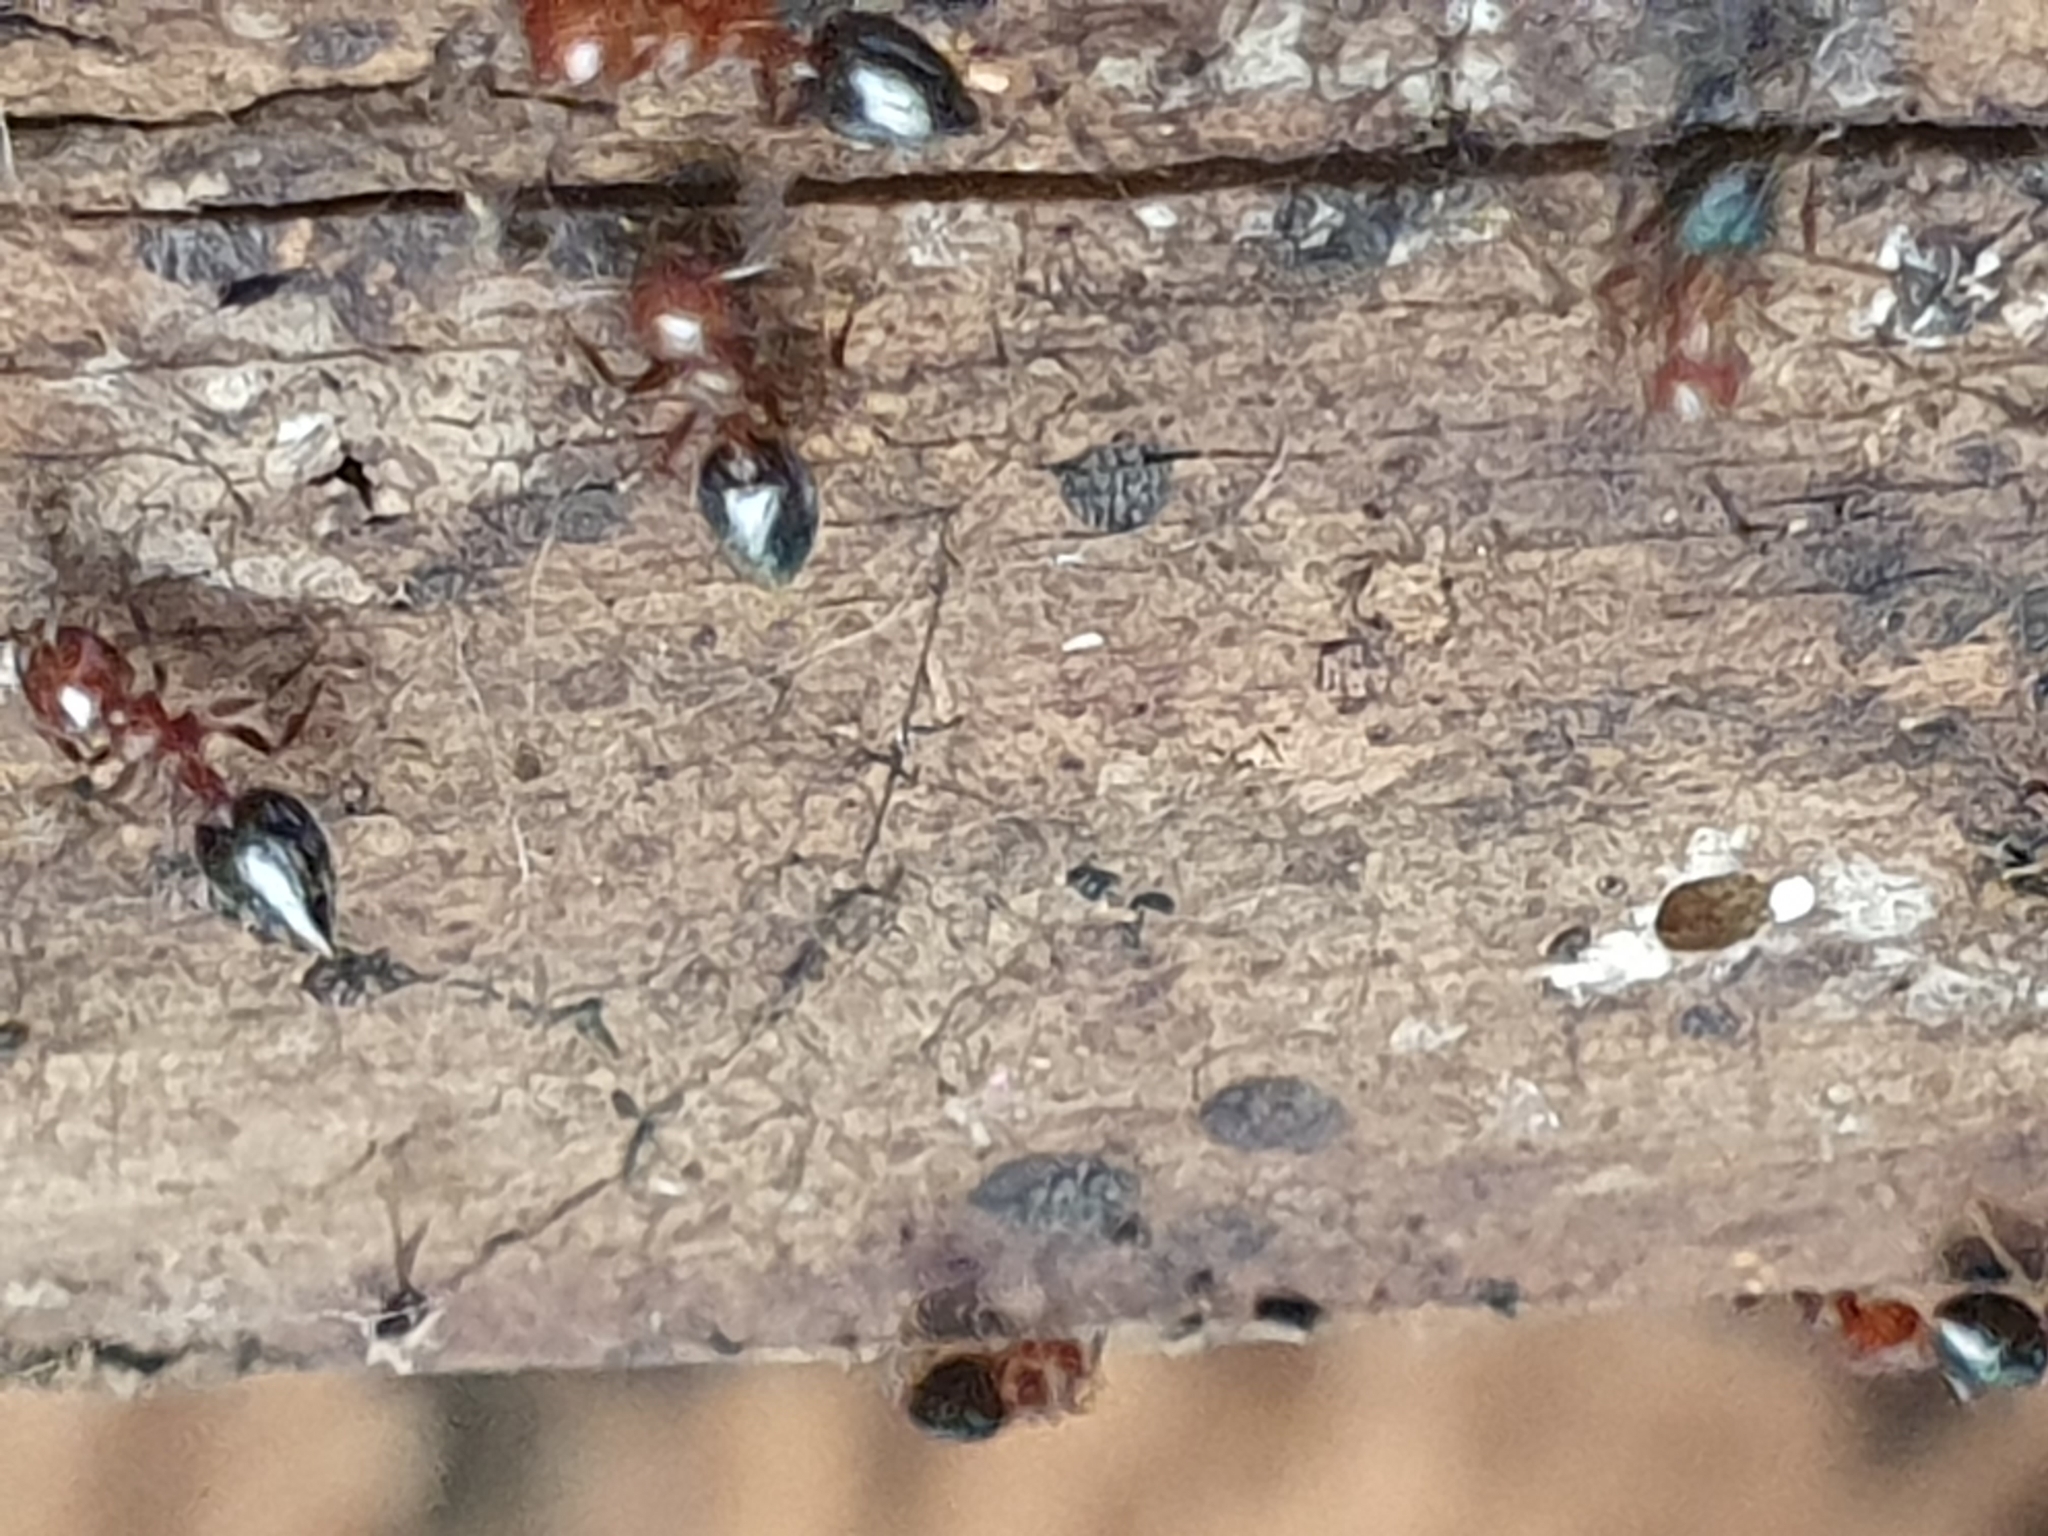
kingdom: Animalia
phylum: Arthropoda
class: Insecta
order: Hymenoptera
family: Formicidae
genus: Crematogaster
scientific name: Crematogaster schmidti
